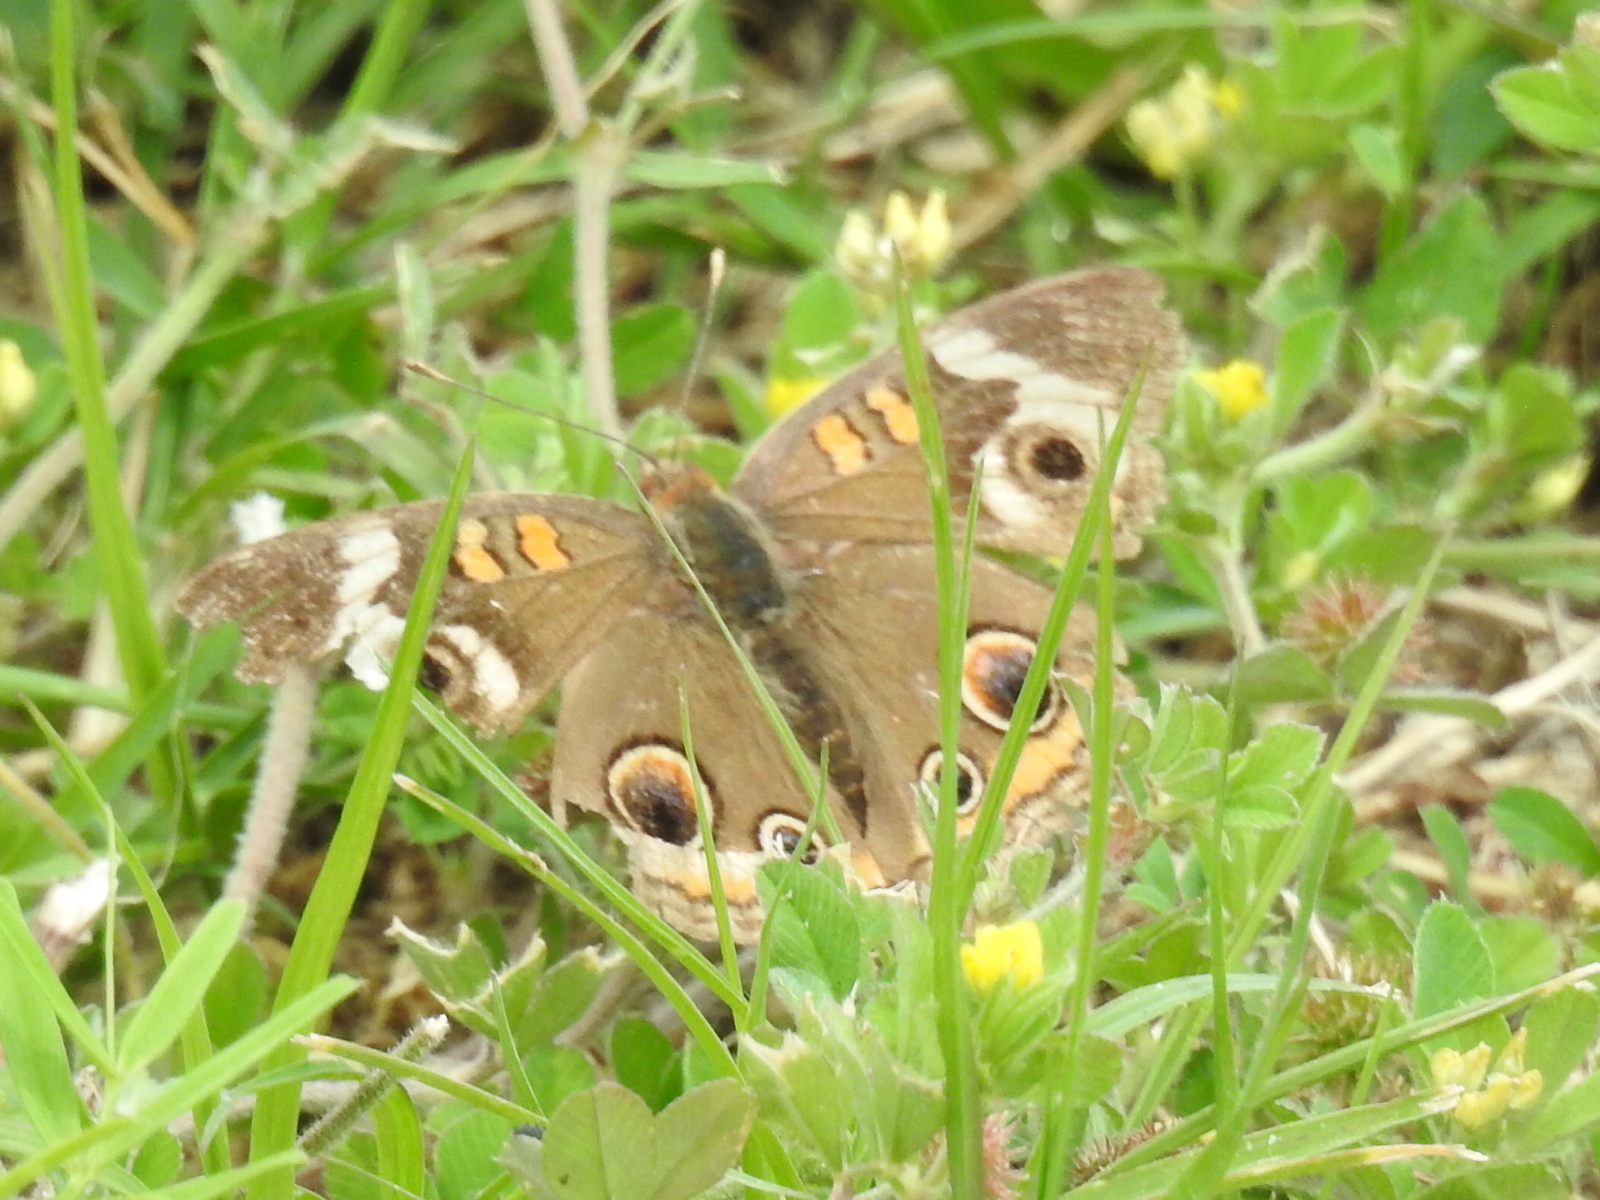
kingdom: Animalia
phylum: Arthropoda
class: Insecta
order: Lepidoptera
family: Nymphalidae
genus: Junonia
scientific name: Junonia coenia
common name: Common buckeye
